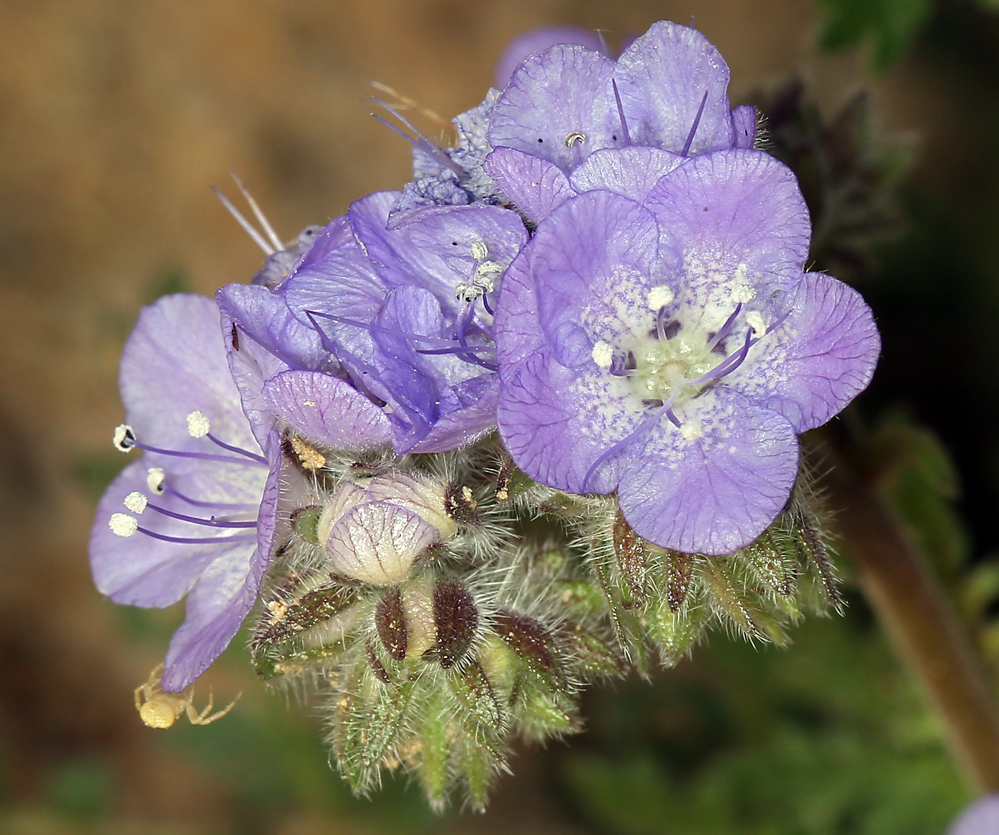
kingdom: Plantae
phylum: Tracheophyta
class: Magnoliopsida
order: Boraginales
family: Hydrophyllaceae
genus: Phacelia
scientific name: Phacelia distans
